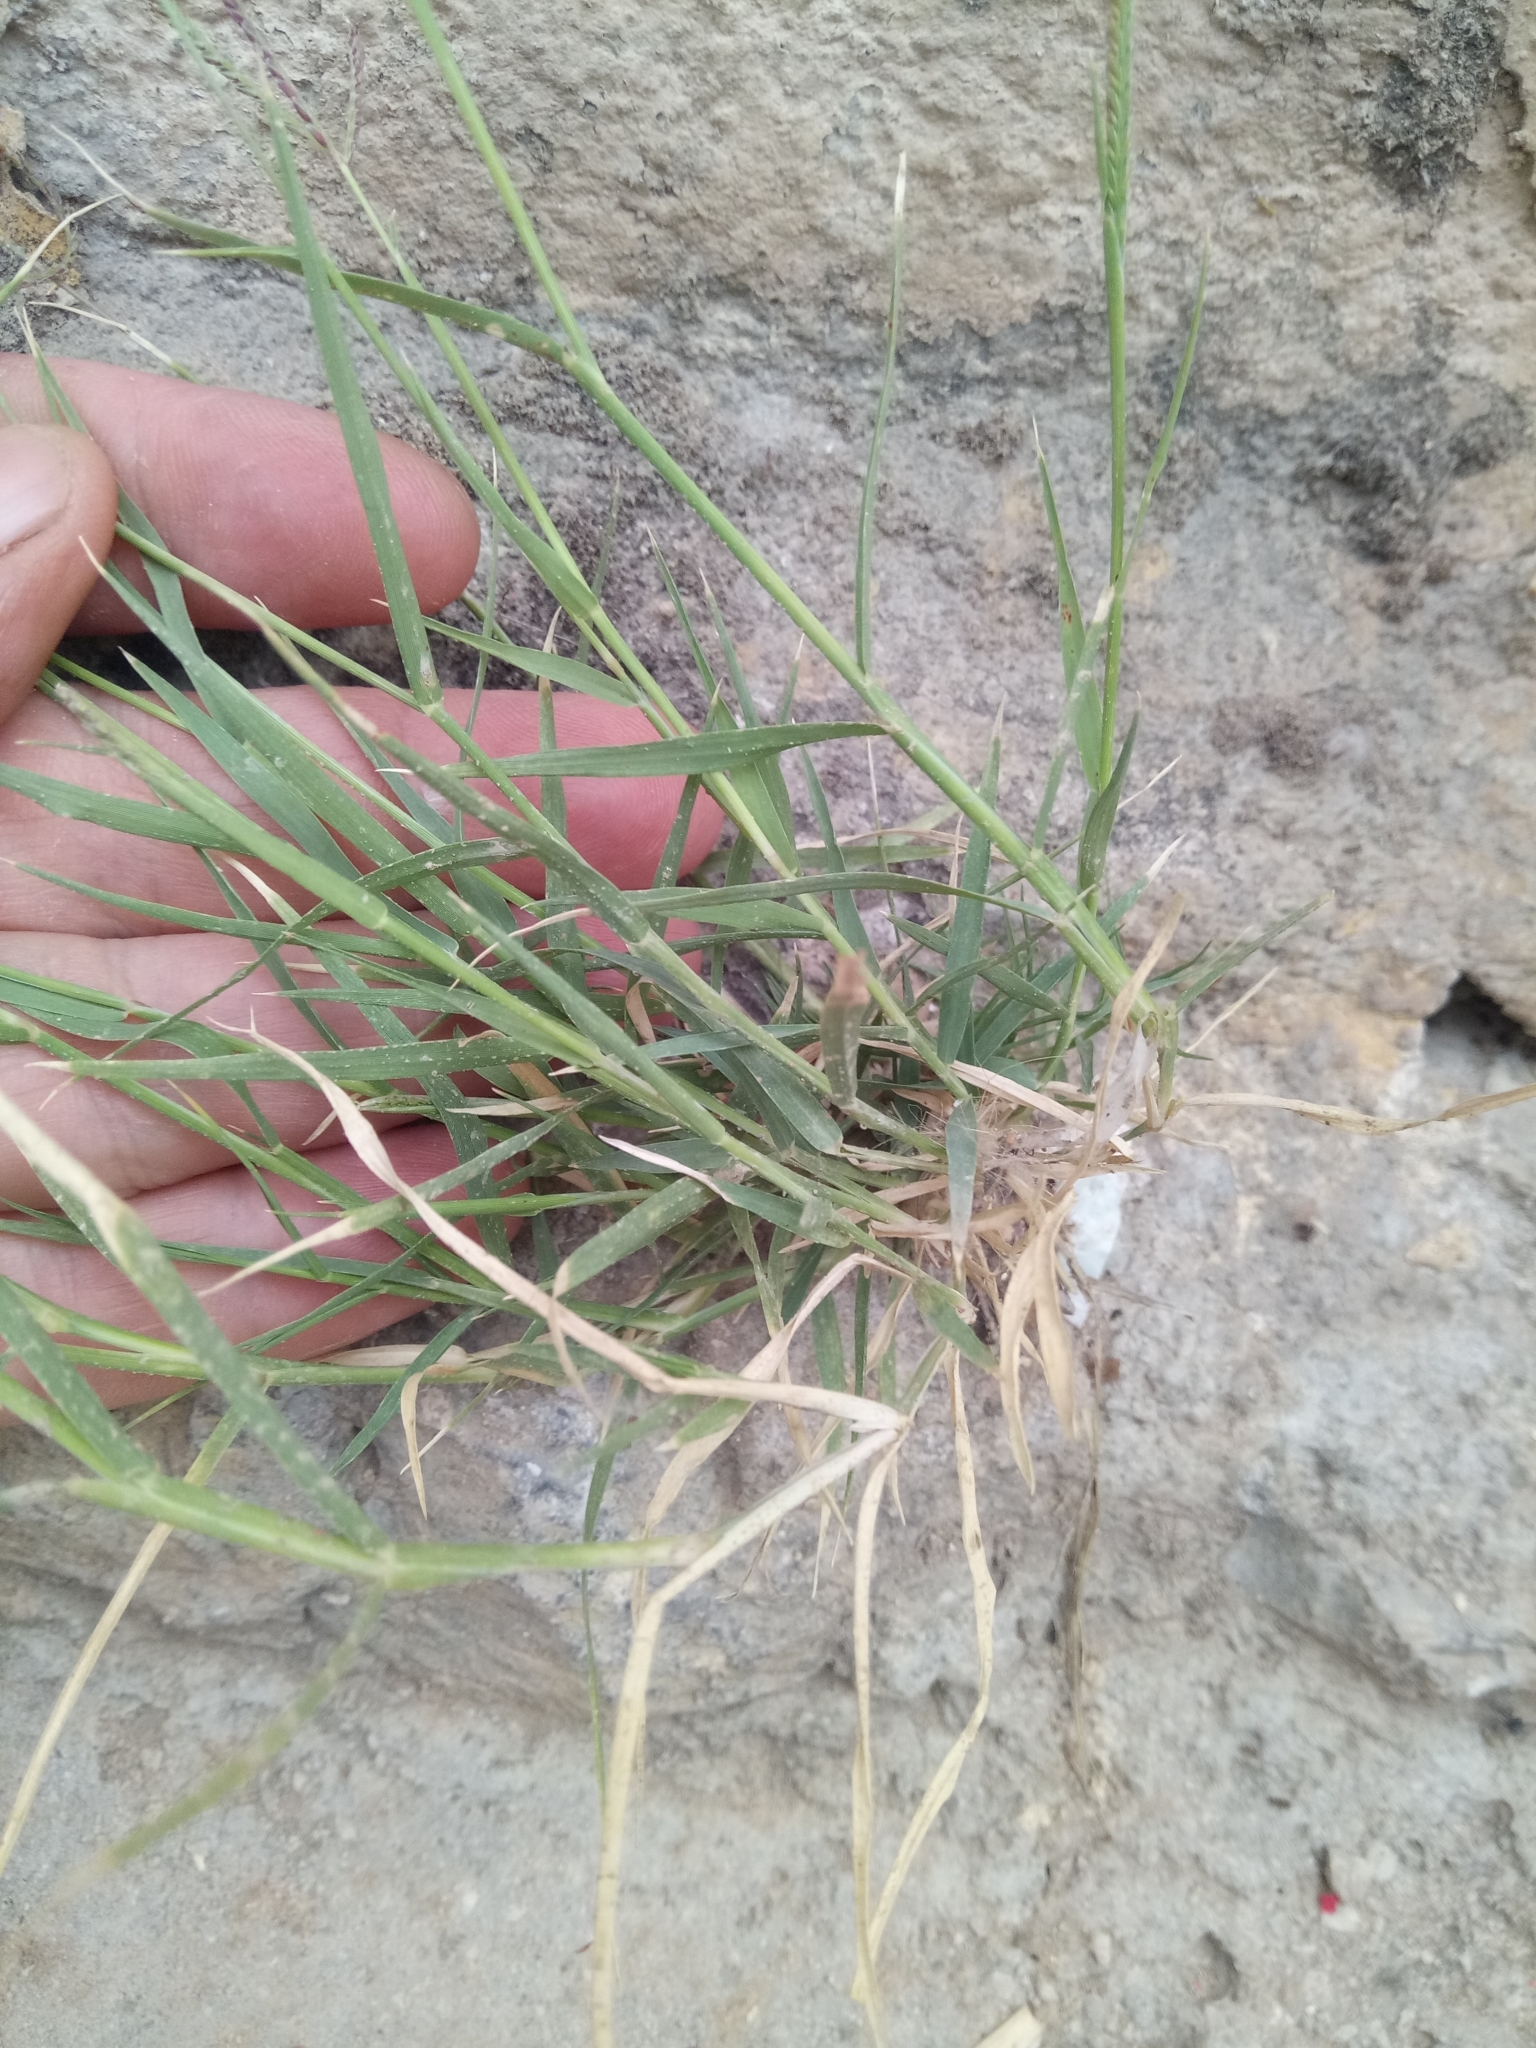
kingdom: Plantae
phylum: Tracheophyta
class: Liliopsida
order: Poales
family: Poaceae
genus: Cynodon
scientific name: Cynodon dactylon
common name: Bermuda grass
